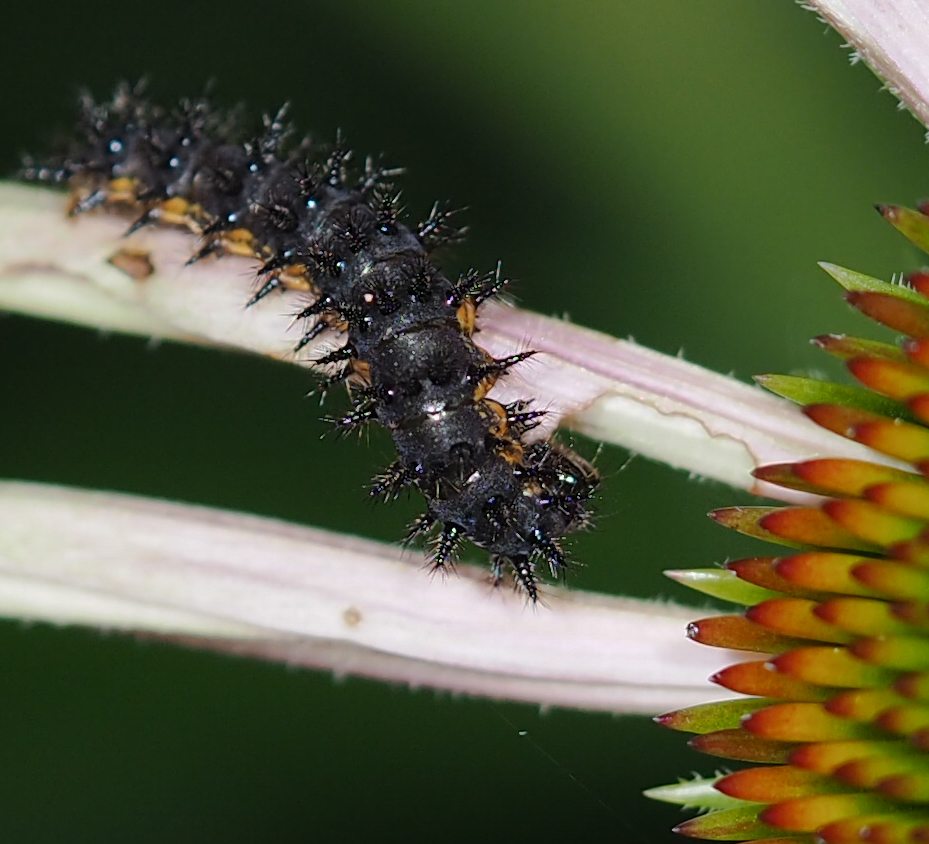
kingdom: Animalia
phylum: Arthropoda
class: Insecta
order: Lepidoptera
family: Nymphalidae
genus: Chlosyne
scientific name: Chlosyne nycteis
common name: Silvery checkerspot
